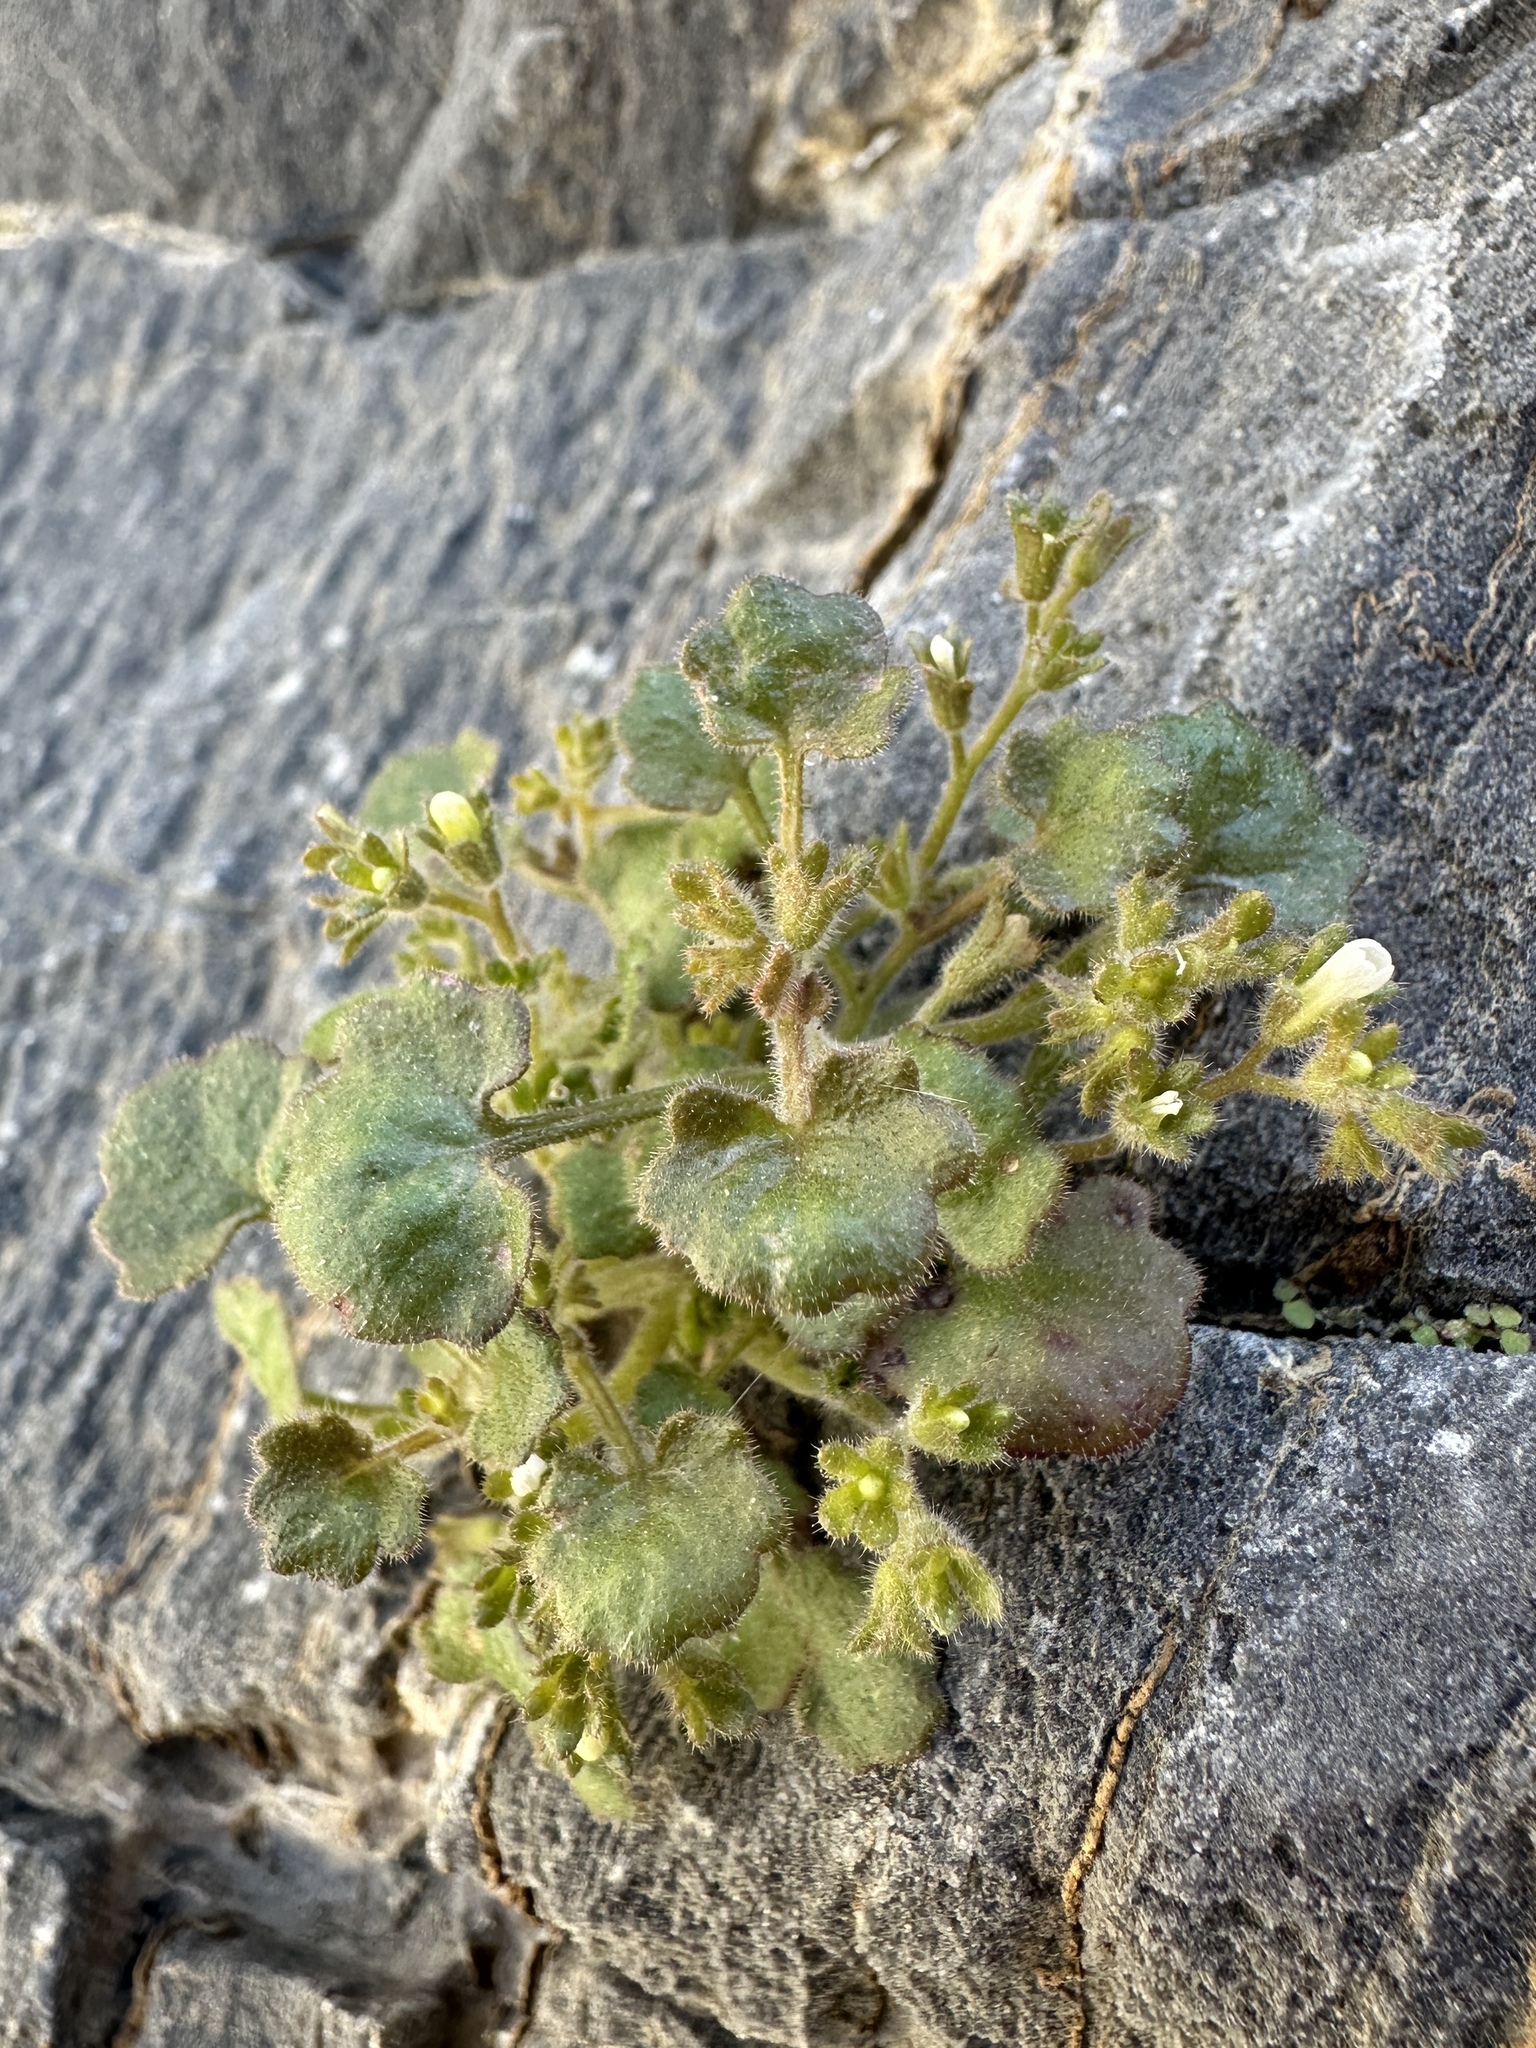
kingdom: Plantae
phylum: Tracheophyta
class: Magnoliopsida
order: Boraginales
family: Hydrophyllaceae
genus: Phacelia
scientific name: Phacelia rotundifolia
